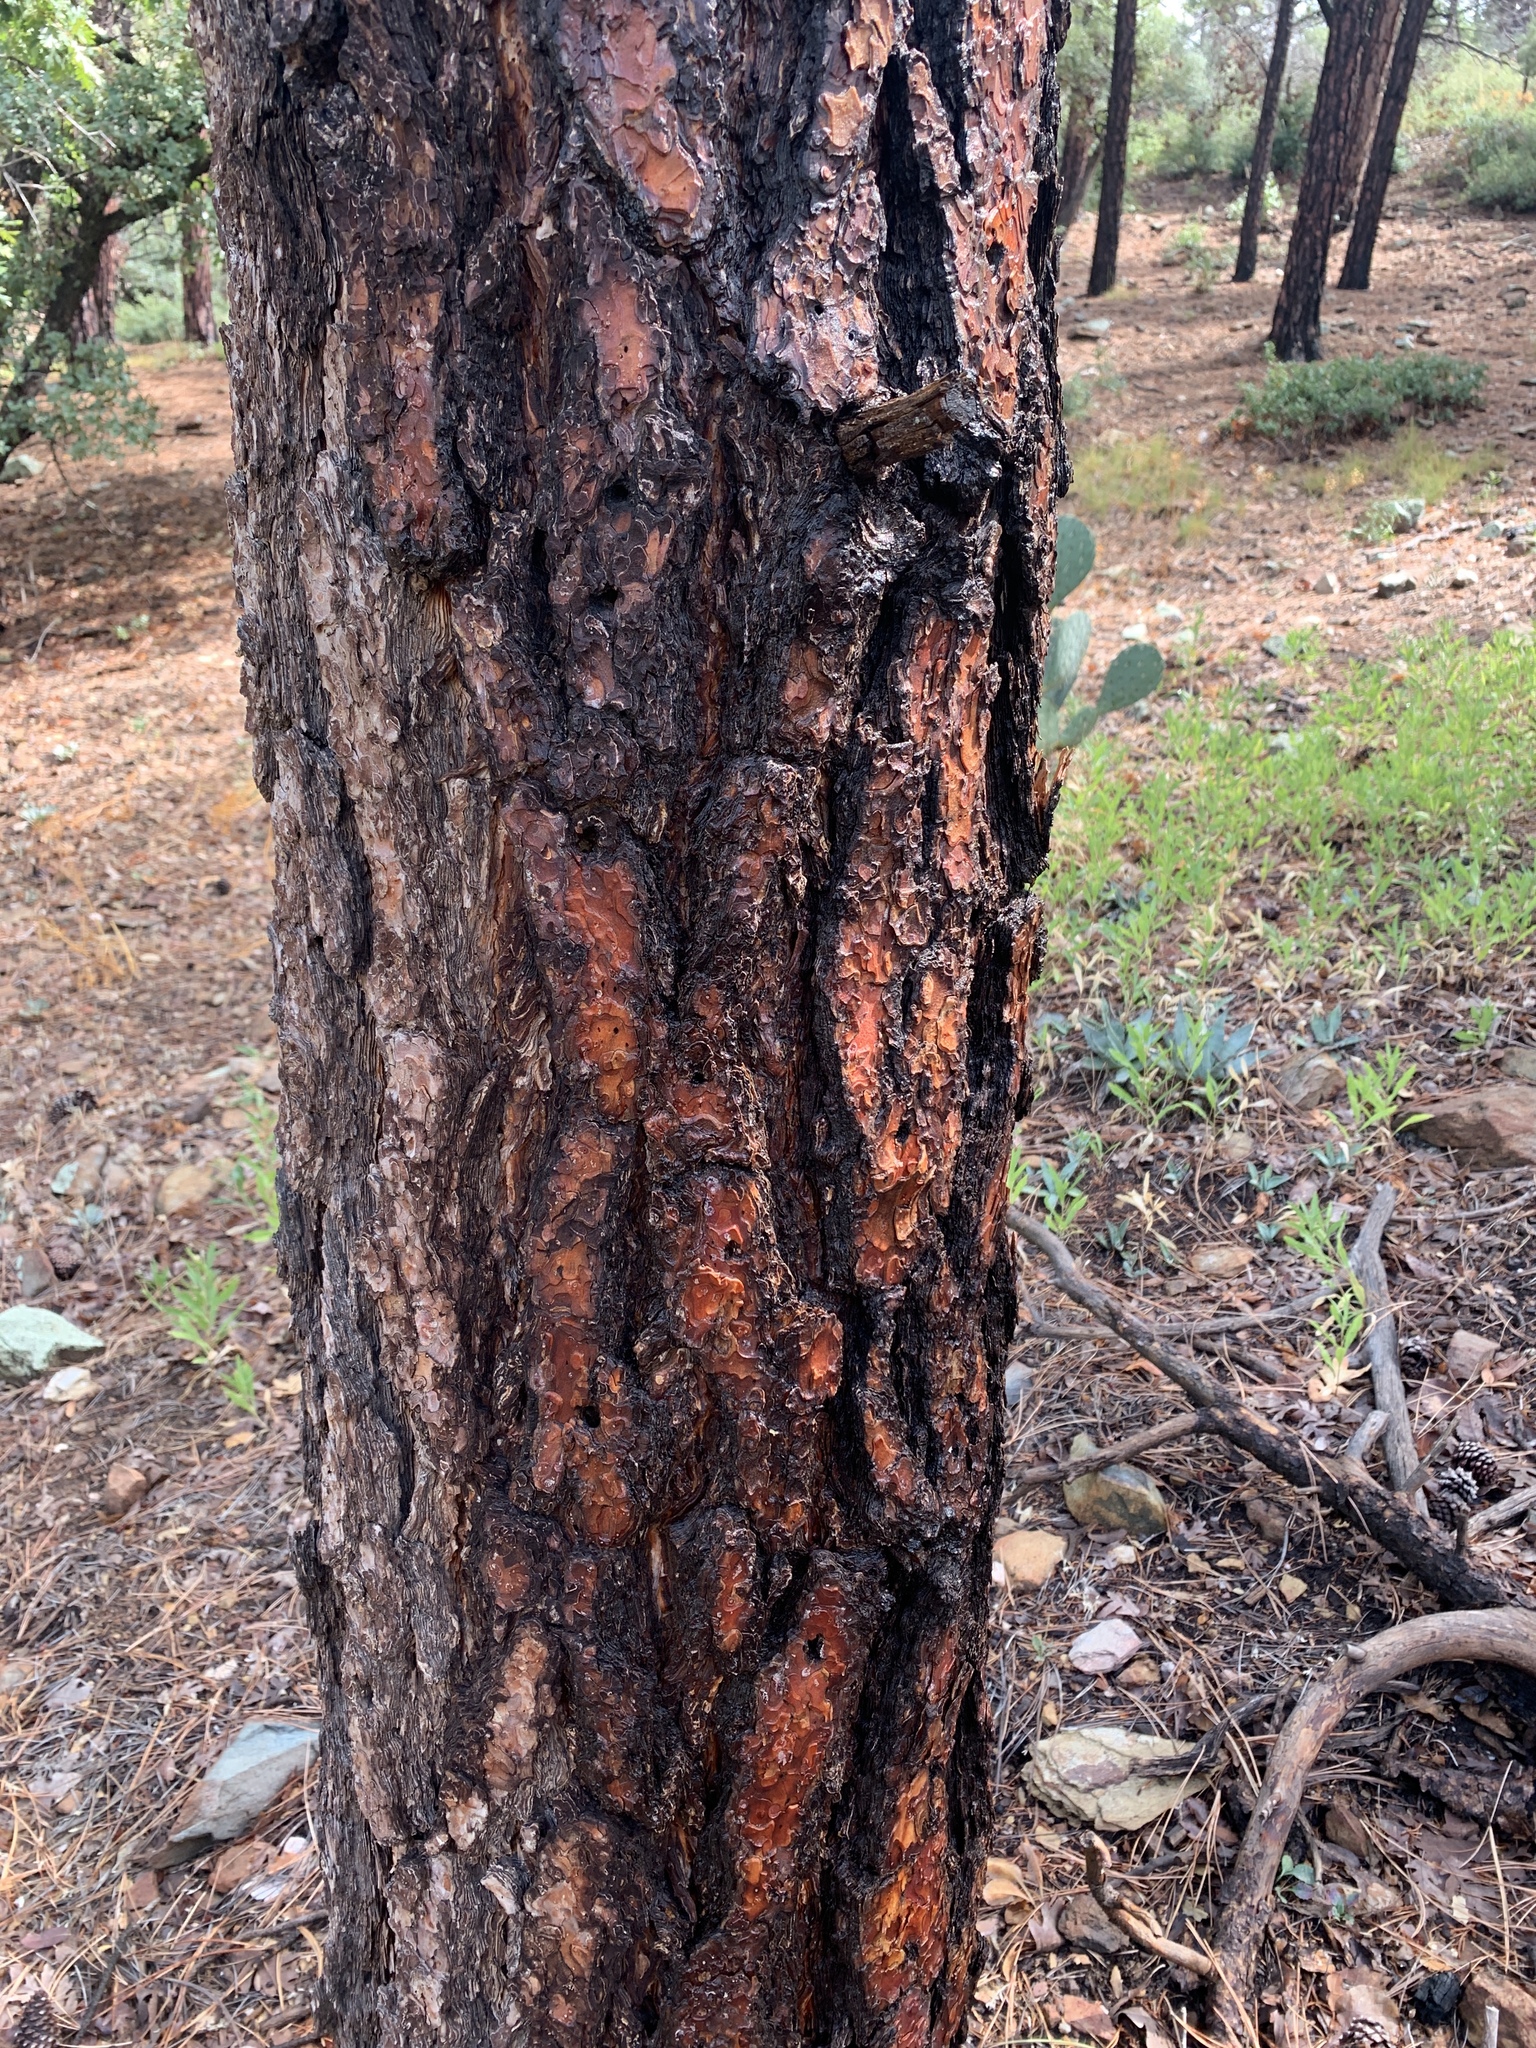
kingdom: Plantae
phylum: Tracheophyta
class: Pinopsida
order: Pinales
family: Pinaceae
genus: Pinus
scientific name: Pinus ponderosa
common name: Western yellow-pine
